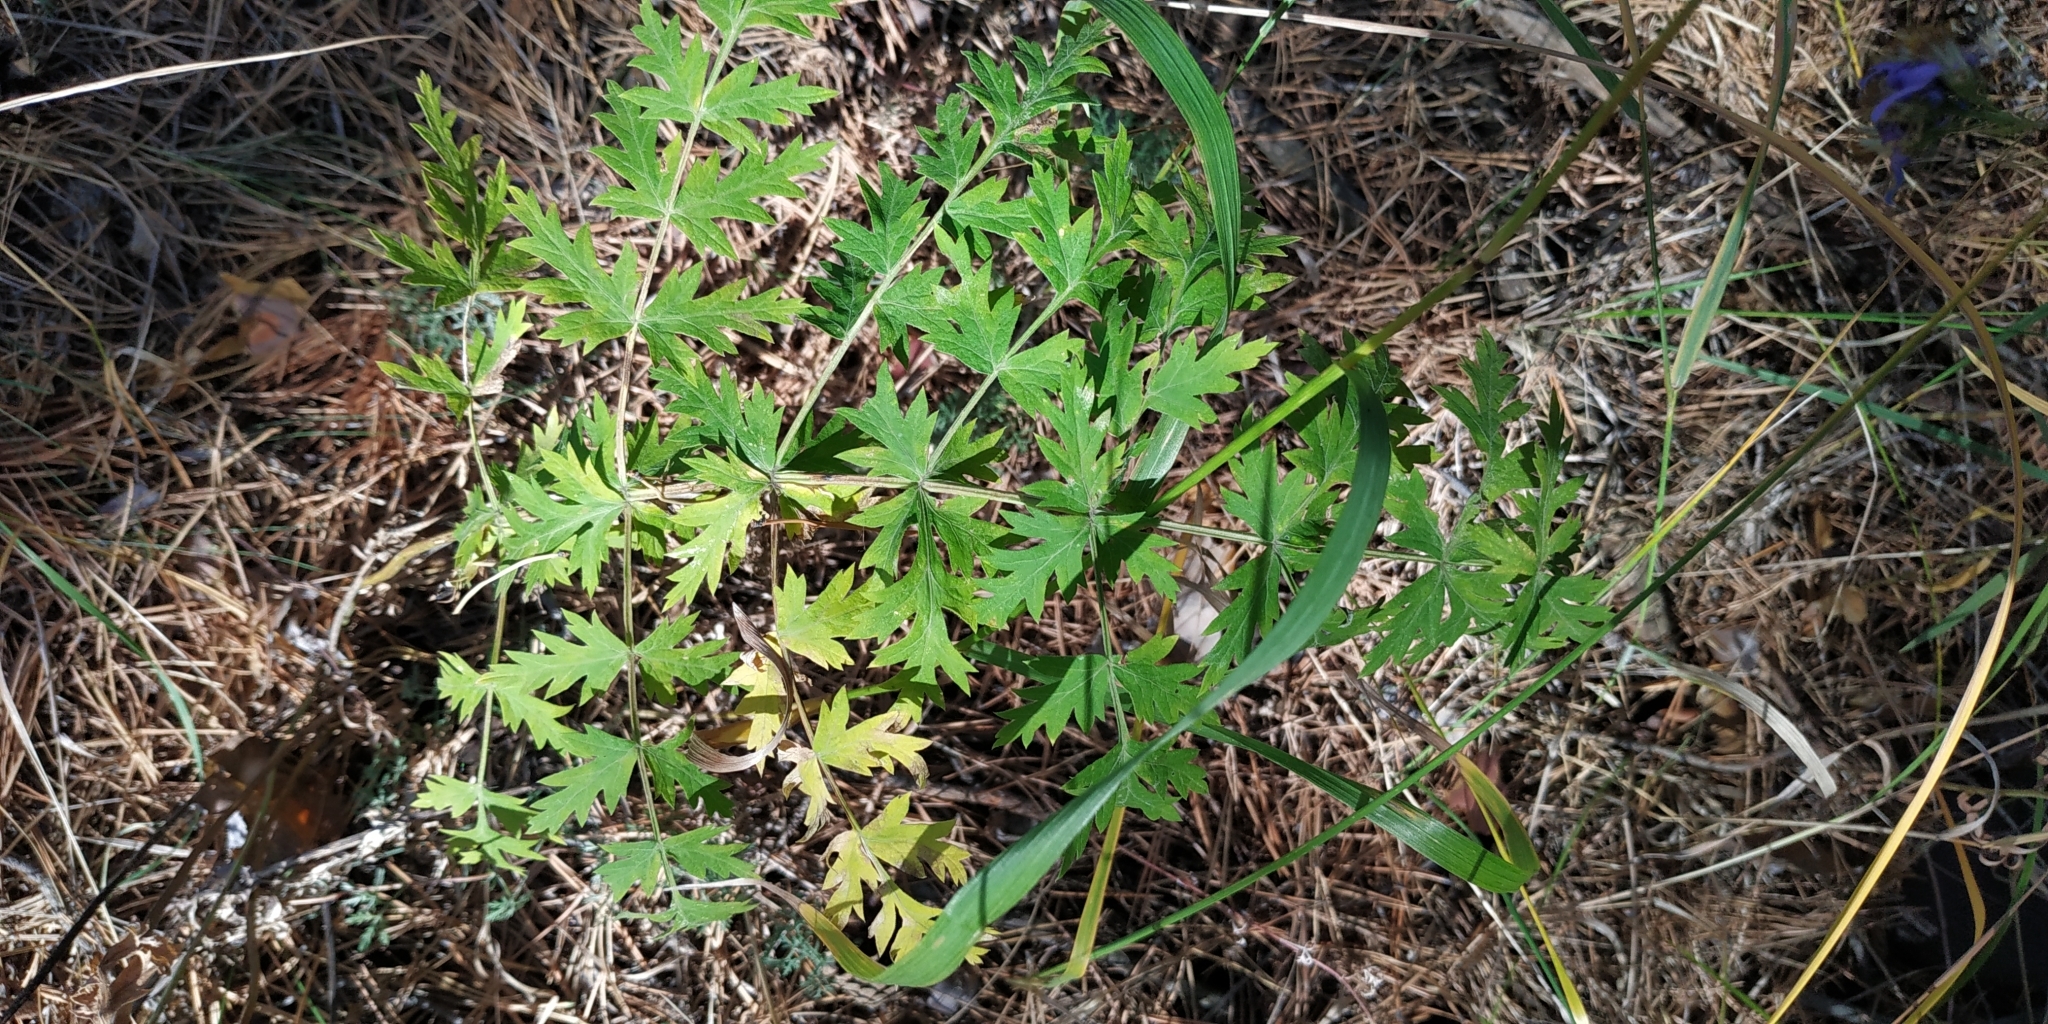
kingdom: Plantae
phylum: Tracheophyta
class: Magnoliopsida
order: Apiales
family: Apiaceae
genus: Seseli
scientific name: Seseli libanotis
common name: Mooncarrot
